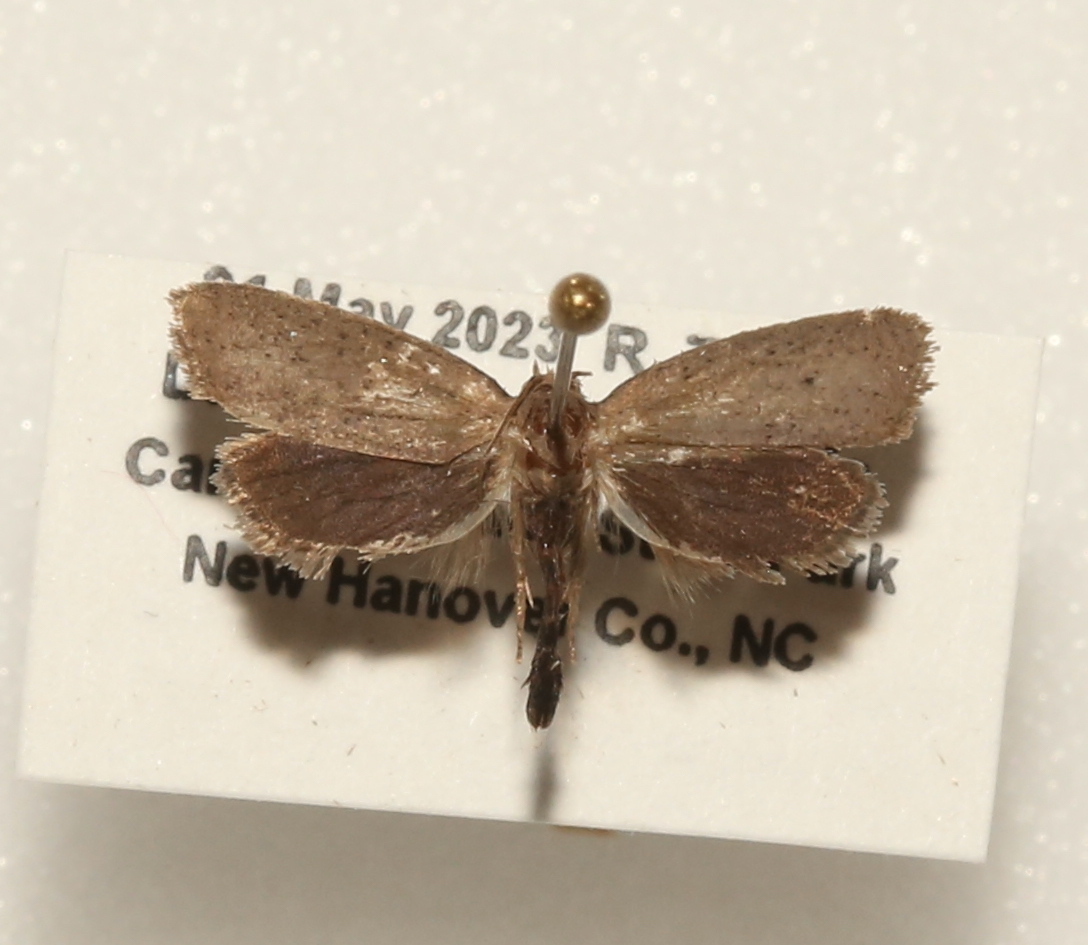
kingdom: Animalia
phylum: Arthropoda
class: Insecta
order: Lepidoptera
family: Tineidae
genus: Acrolophus
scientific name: Acrolophus
